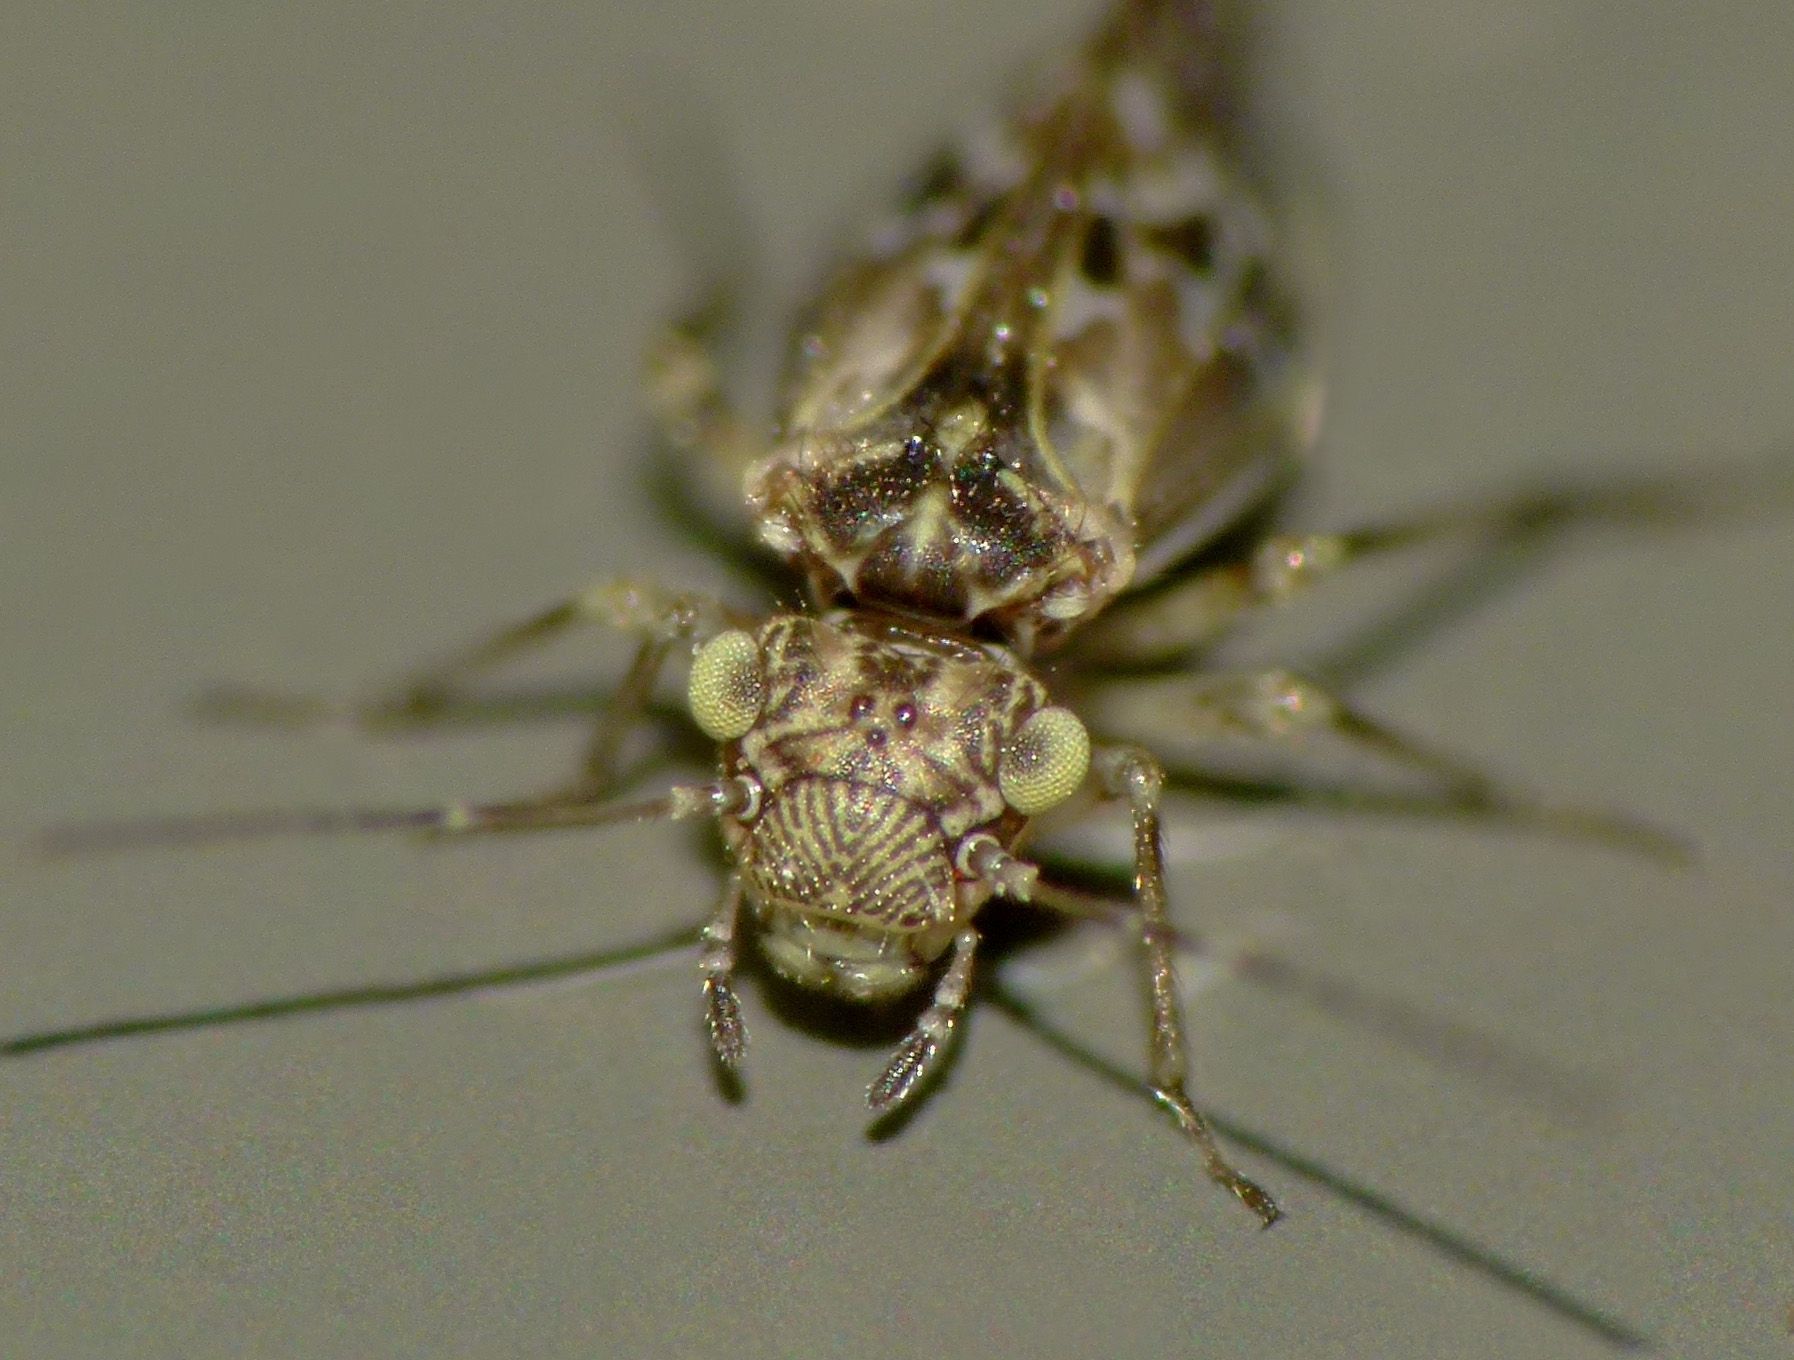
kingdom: Animalia
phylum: Arthropoda
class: Insecta
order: Psocodea
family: Elipsocidae
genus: Diademadrilus
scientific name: Diademadrilus annulatus
